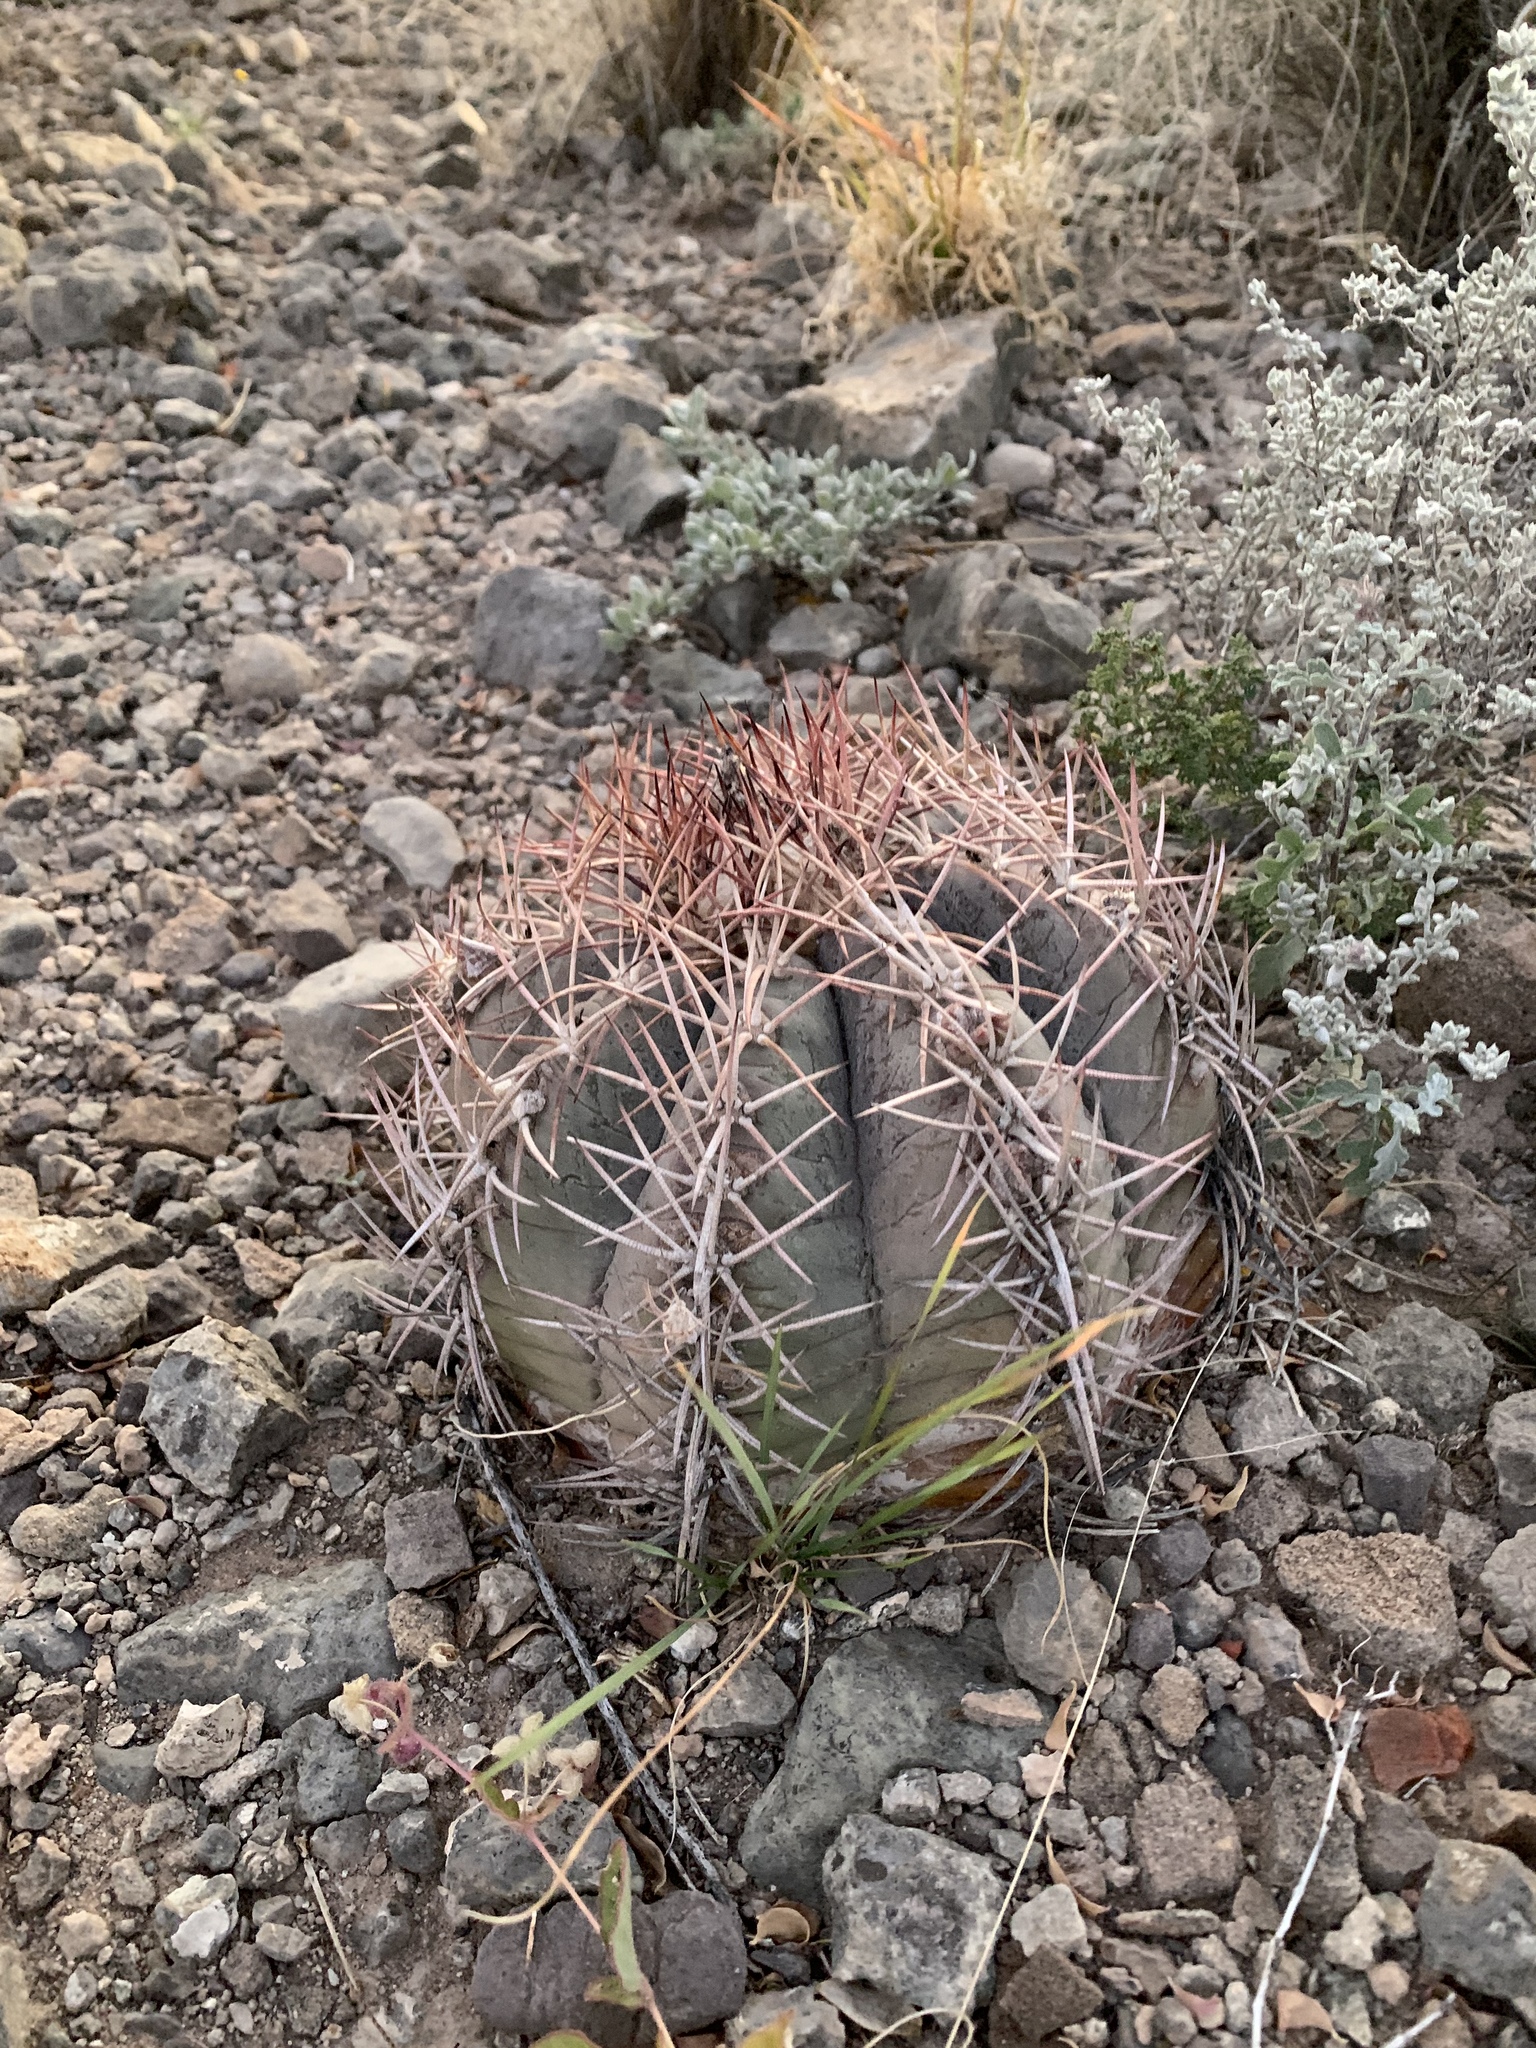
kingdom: Plantae
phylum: Tracheophyta
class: Magnoliopsida
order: Caryophyllales
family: Cactaceae
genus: Echinocactus
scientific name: Echinocactus horizonthalonius
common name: Devilshead
